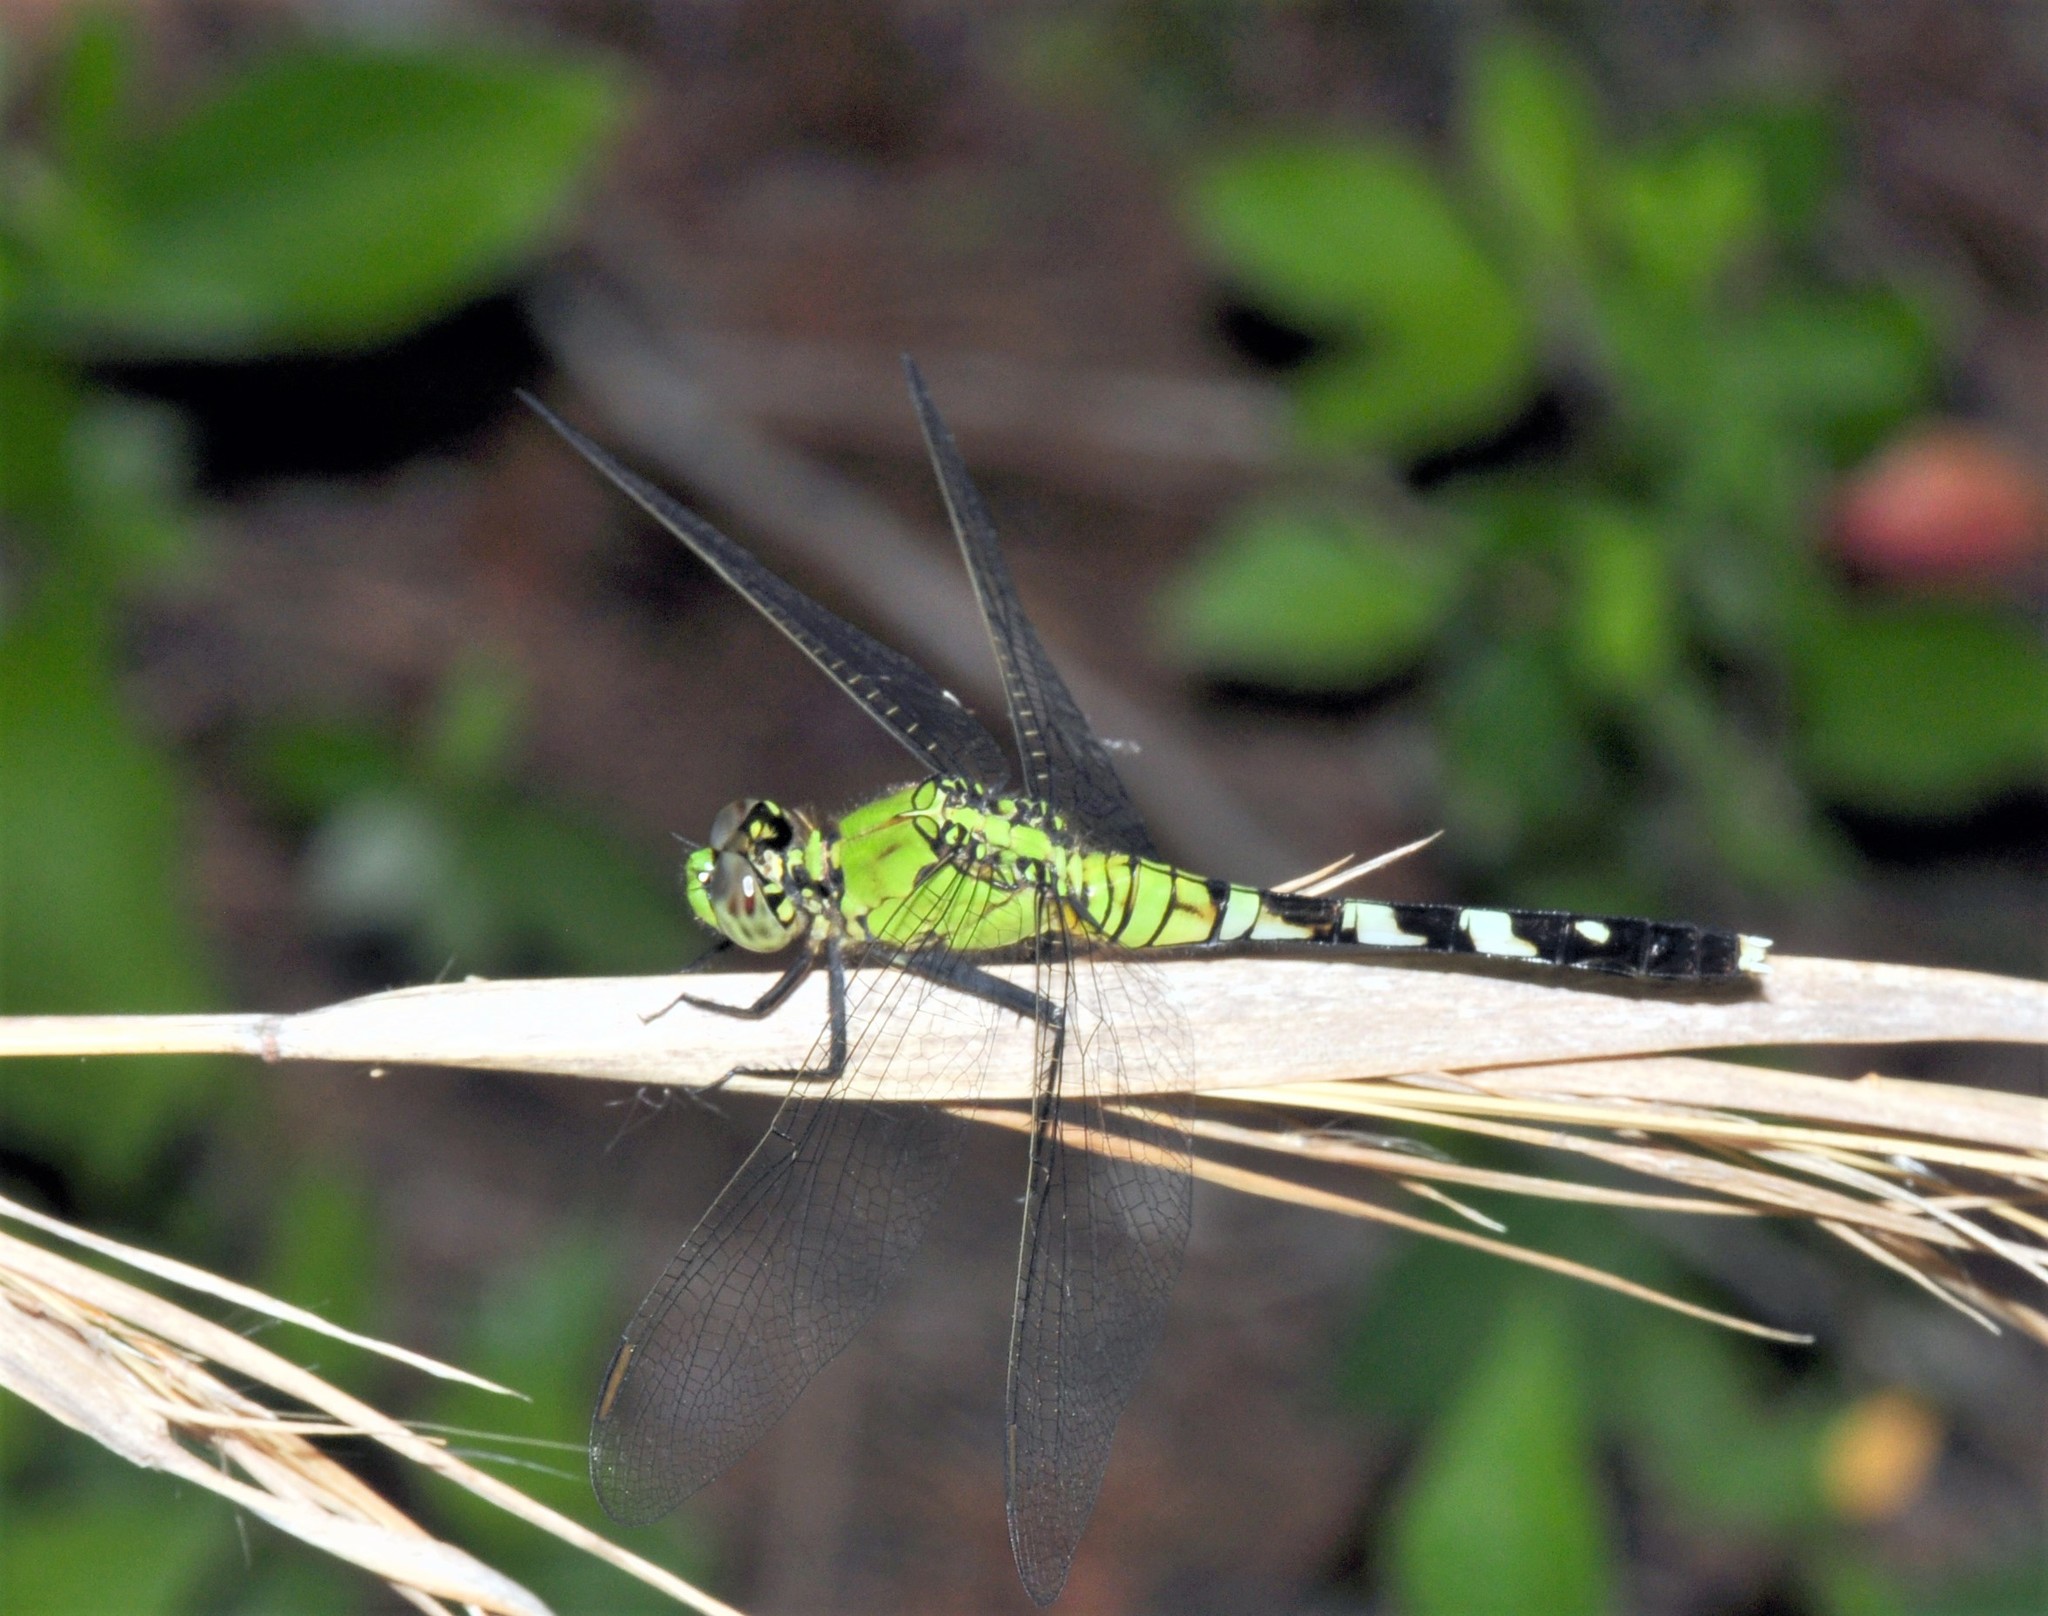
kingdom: Animalia
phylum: Arthropoda
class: Insecta
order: Odonata
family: Libellulidae
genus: Erythemis
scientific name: Erythemis simplicicollis
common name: Eastern pondhawk
